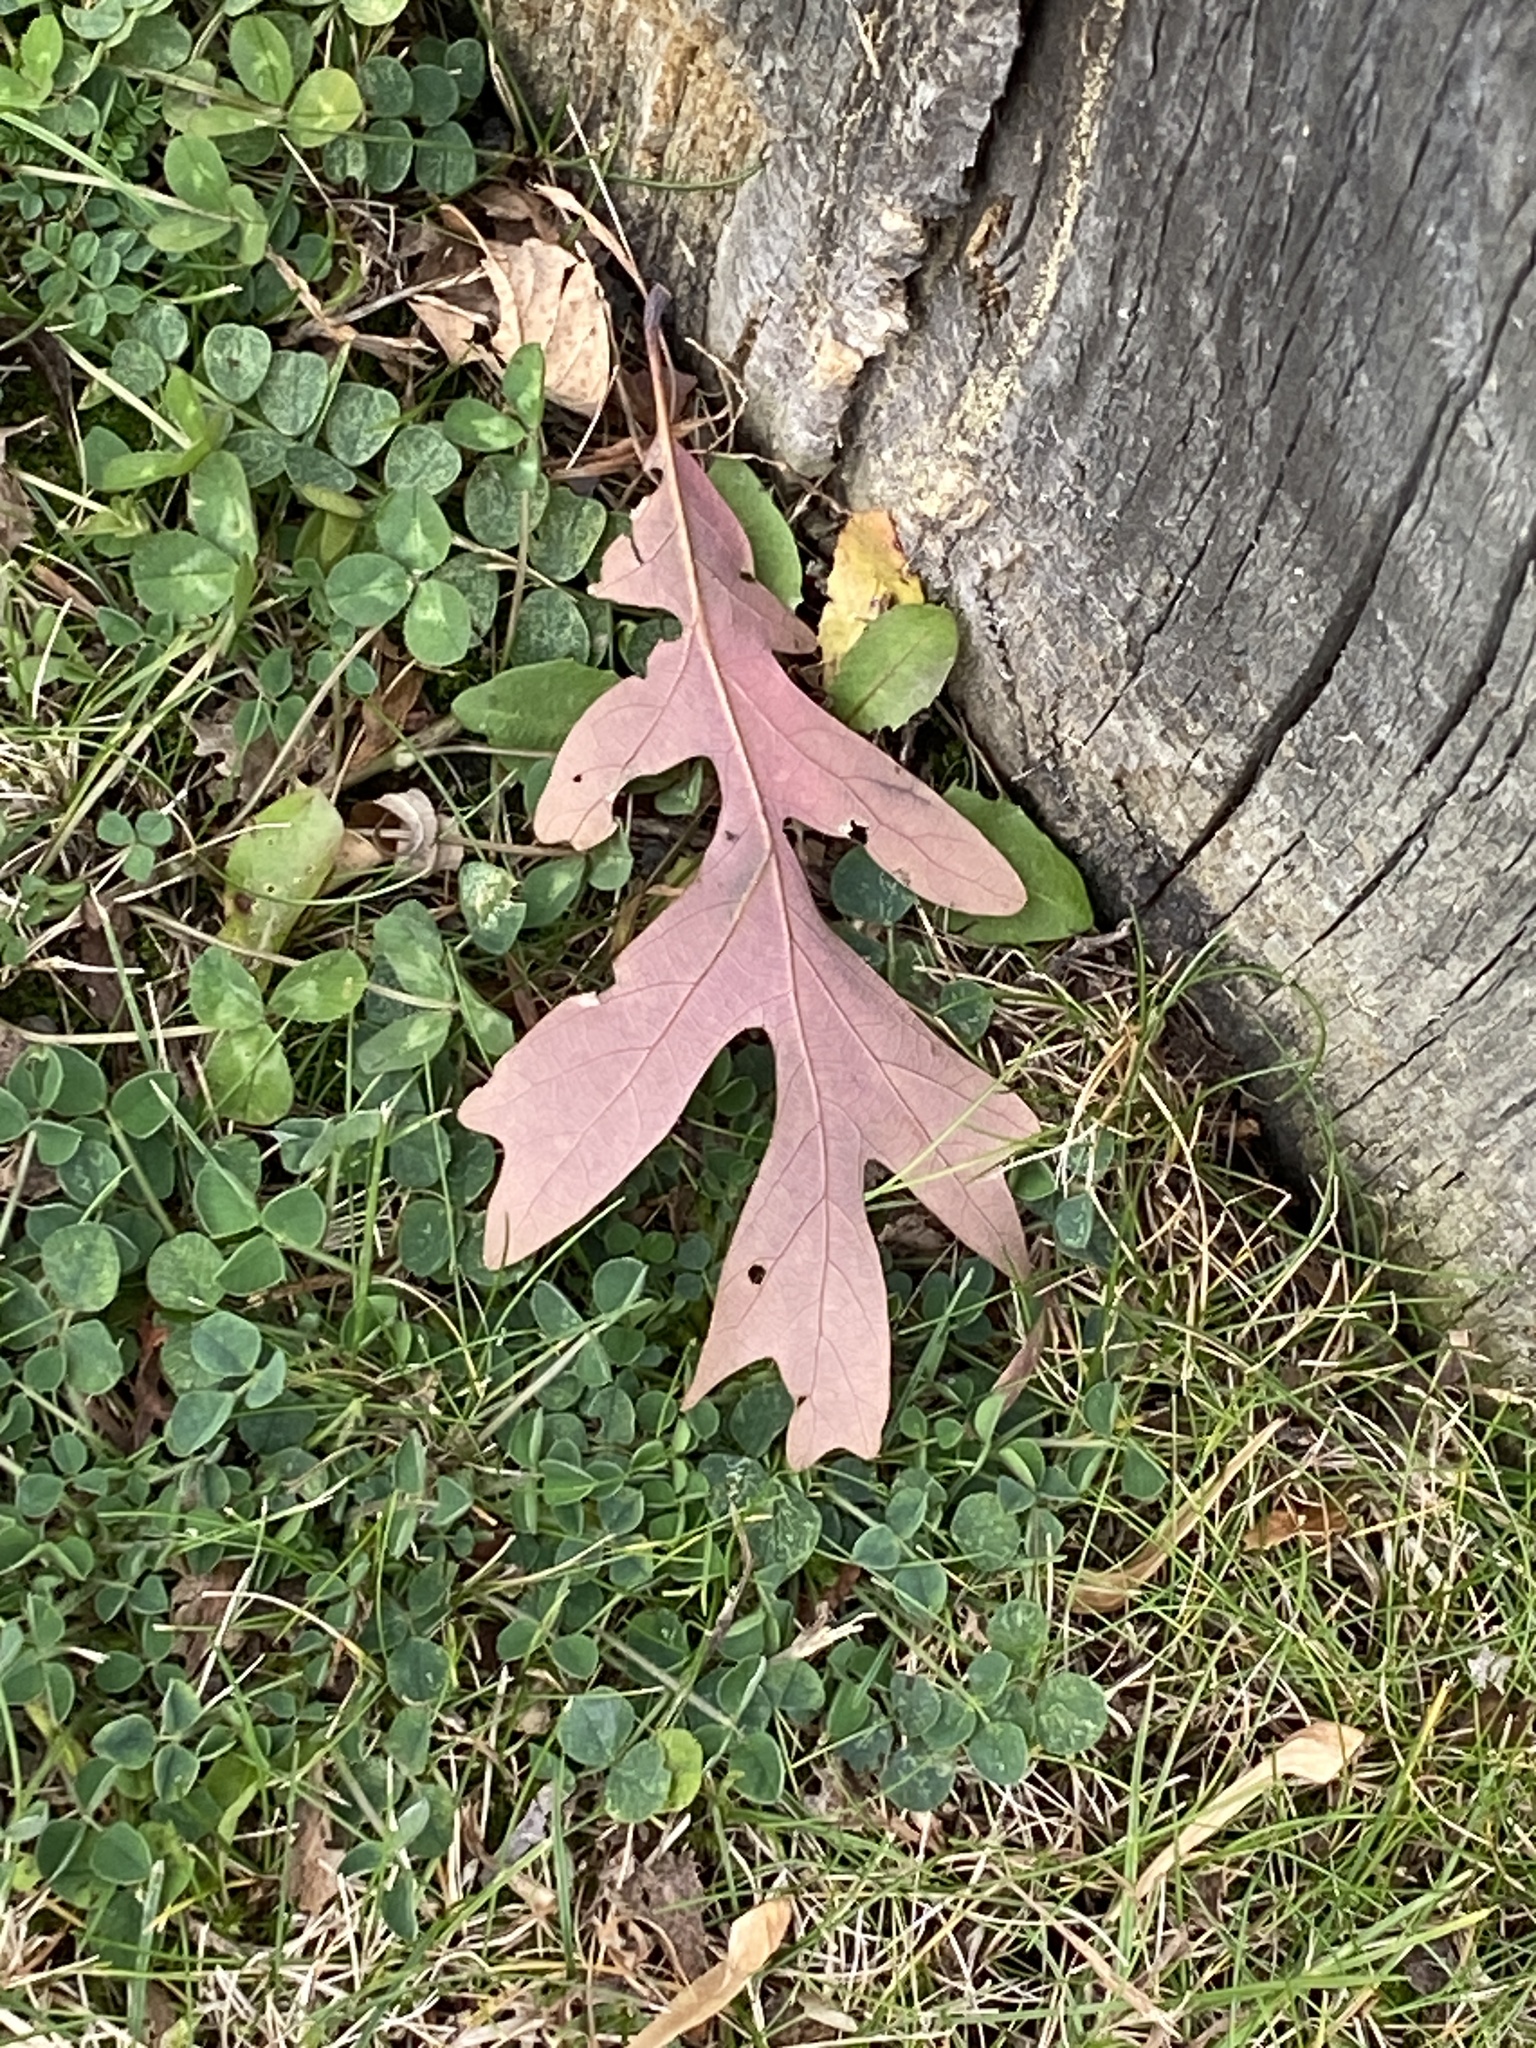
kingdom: Plantae
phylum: Tracheophyta
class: Magnoliopsida
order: Fagales
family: Fagaceae
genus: Quercus
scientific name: Quercus alba
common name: White oak
